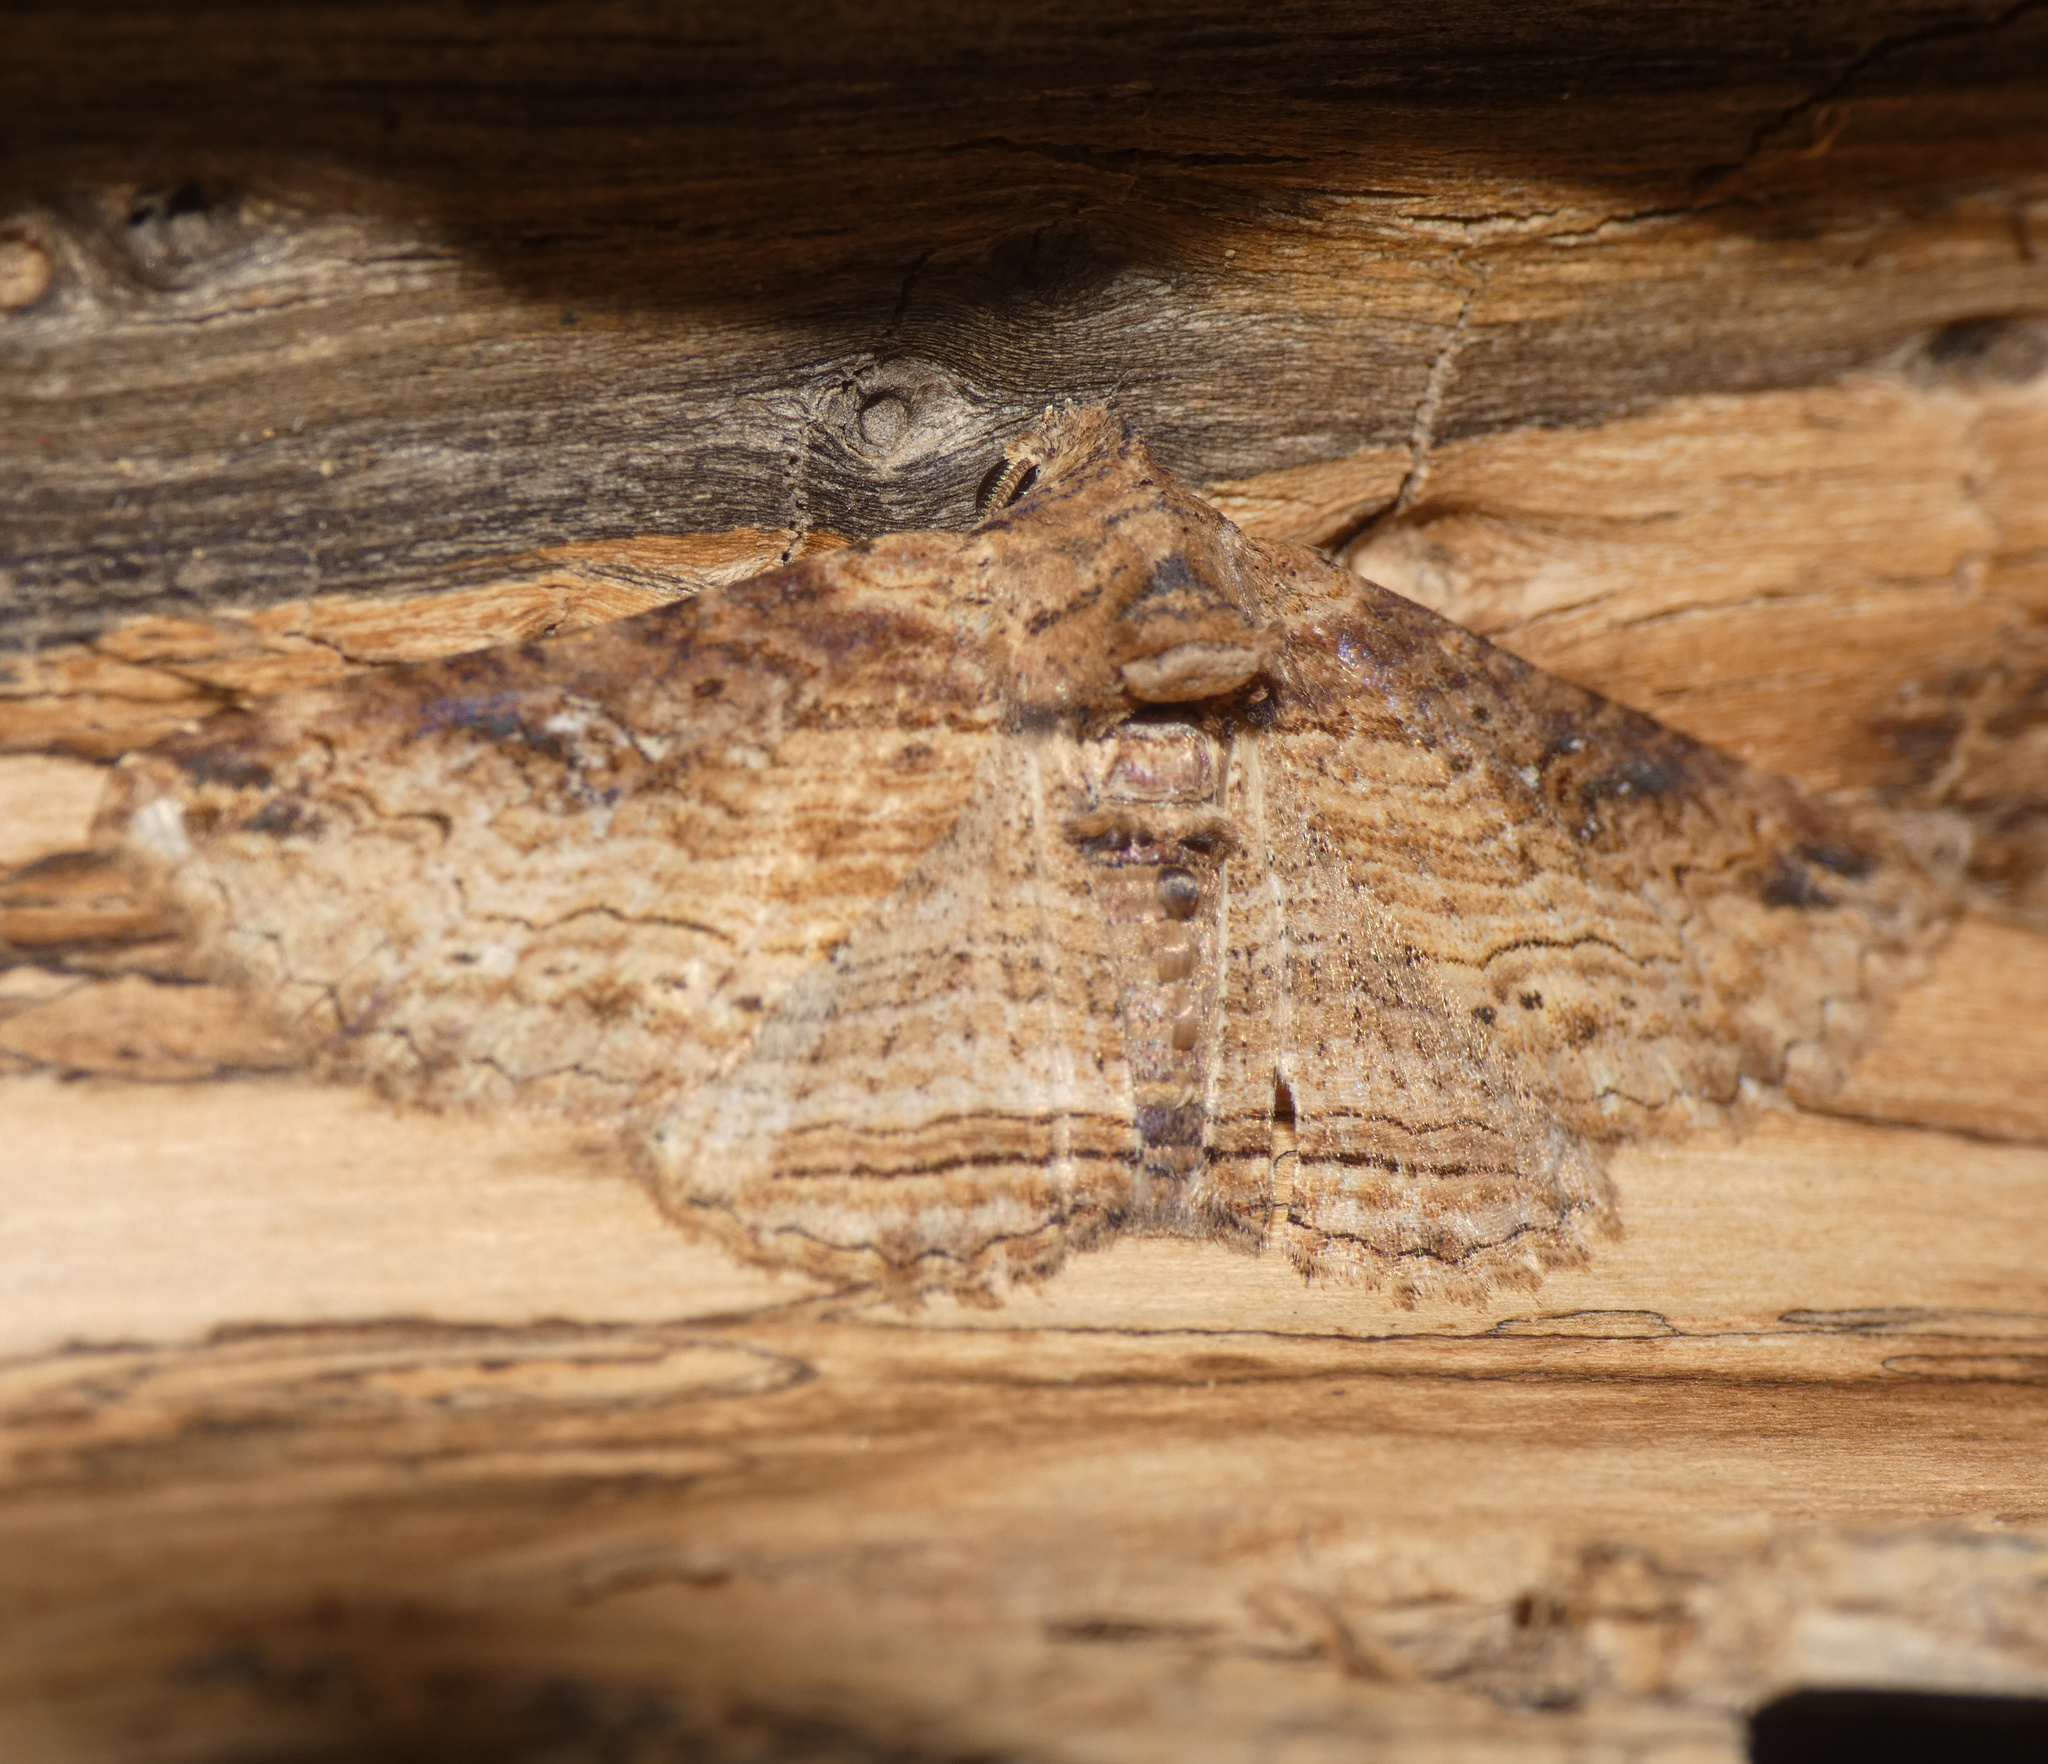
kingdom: Animalia
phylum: Arthropoda
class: Insecta
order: Lepidoptera
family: Erebidae
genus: Pericyma
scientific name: Pericyma mendax
